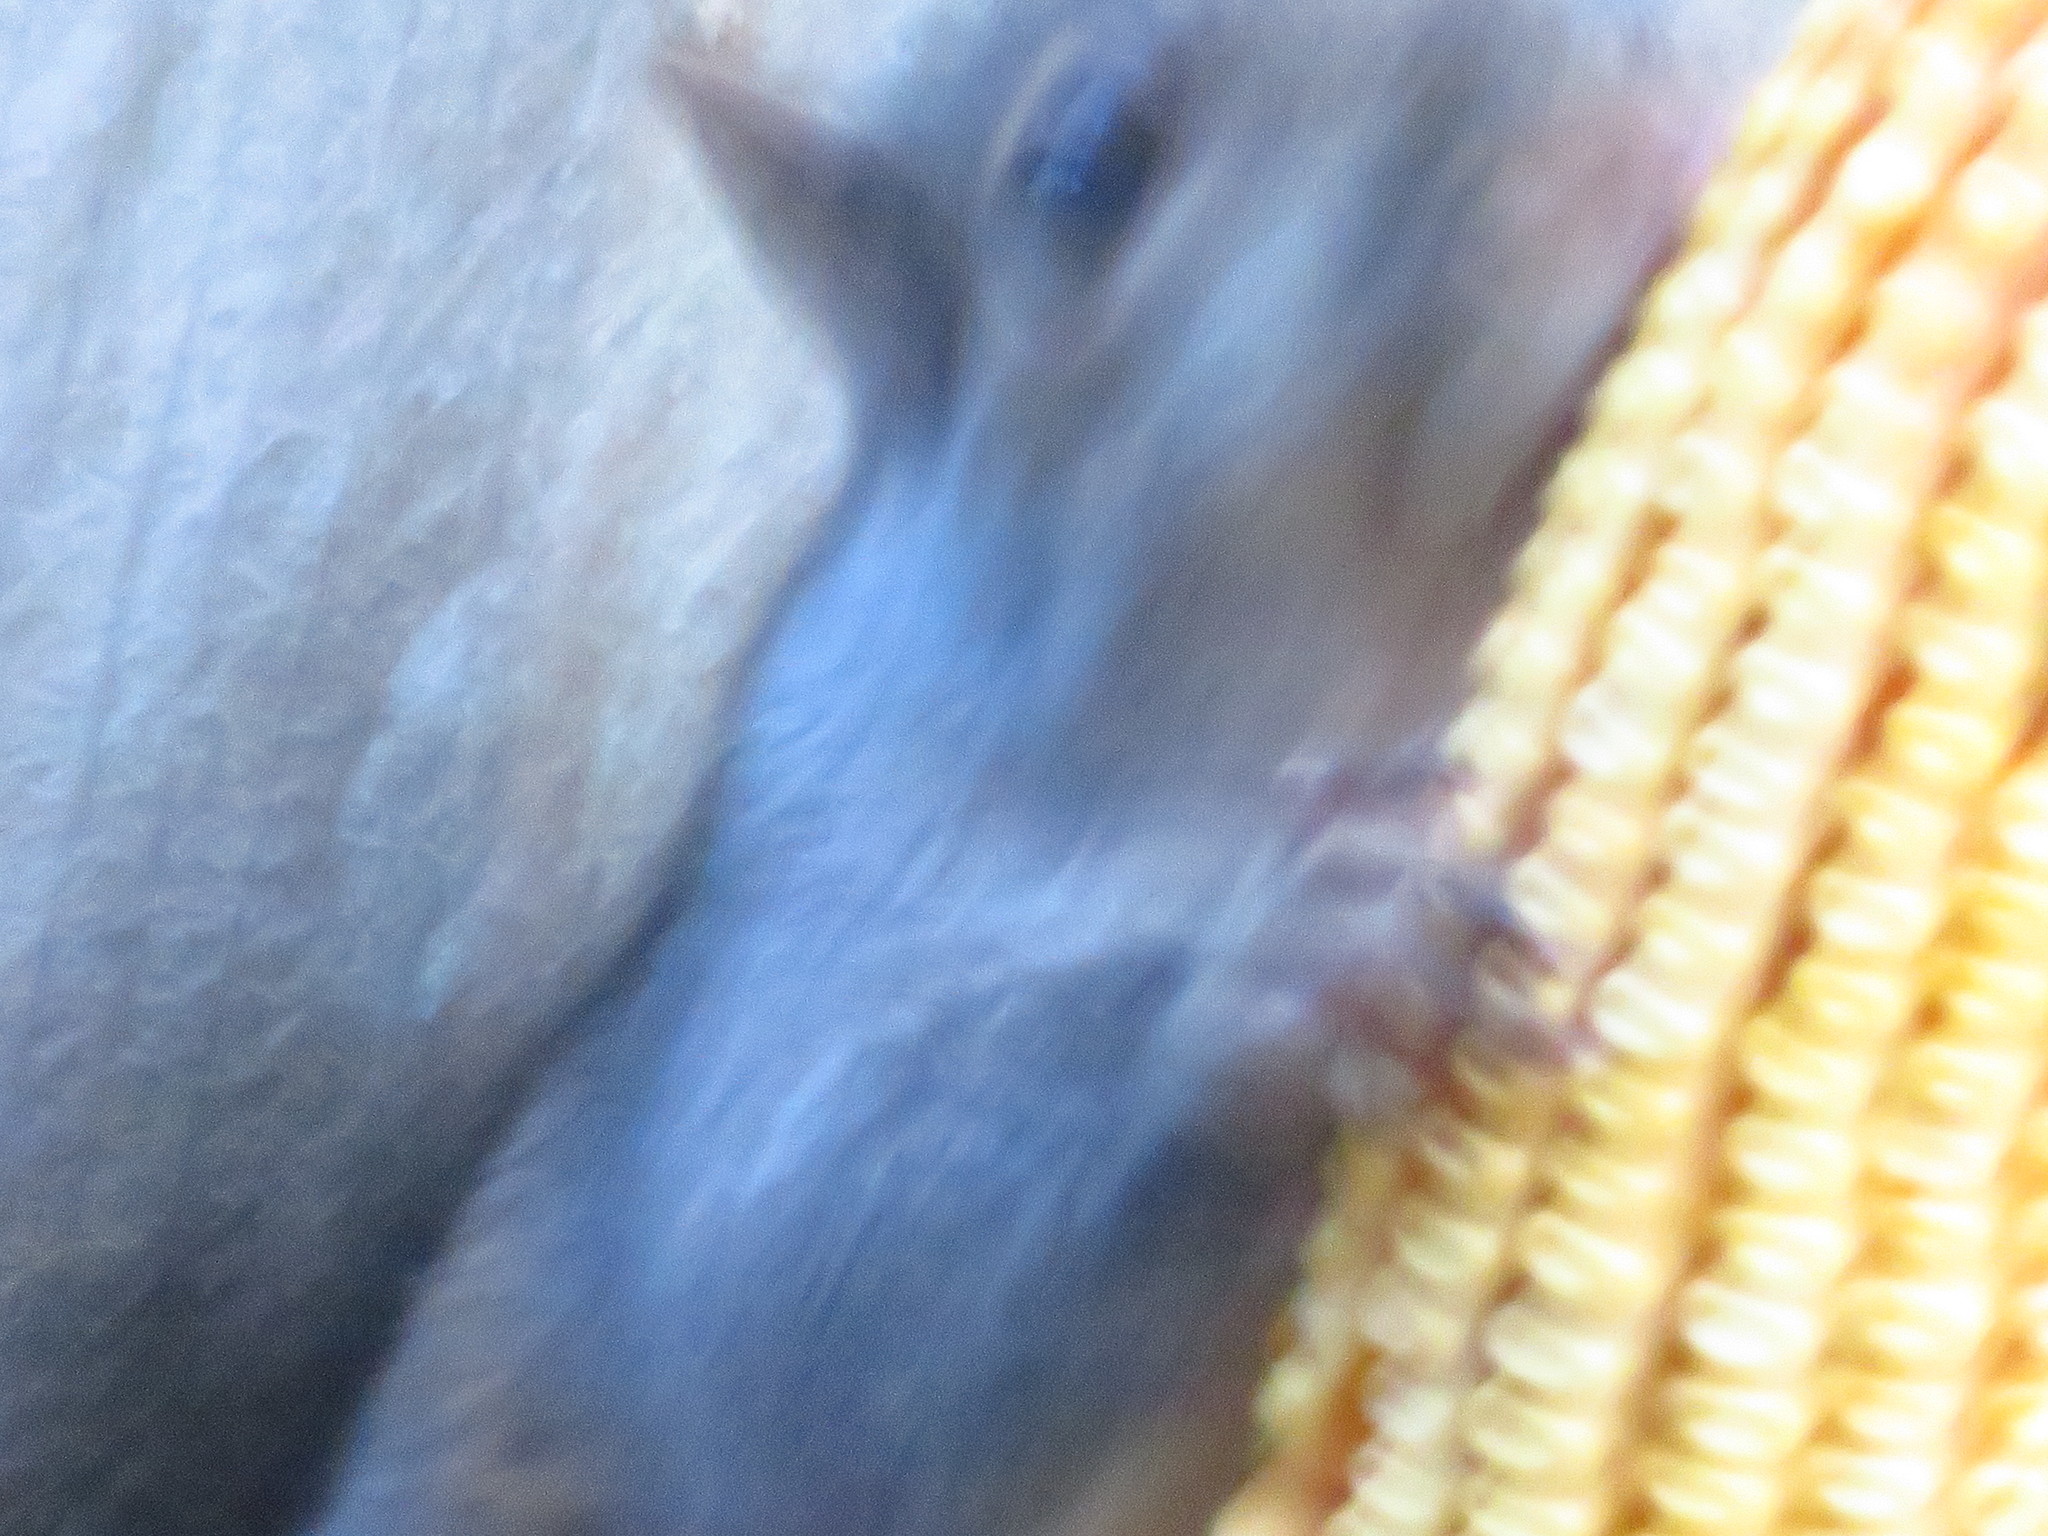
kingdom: Animalia
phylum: Chordata
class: Mammalia
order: Rodentia
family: Sciuridae
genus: Sciurus
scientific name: Sciurus carolinensis
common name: Eastern gray squirrel
